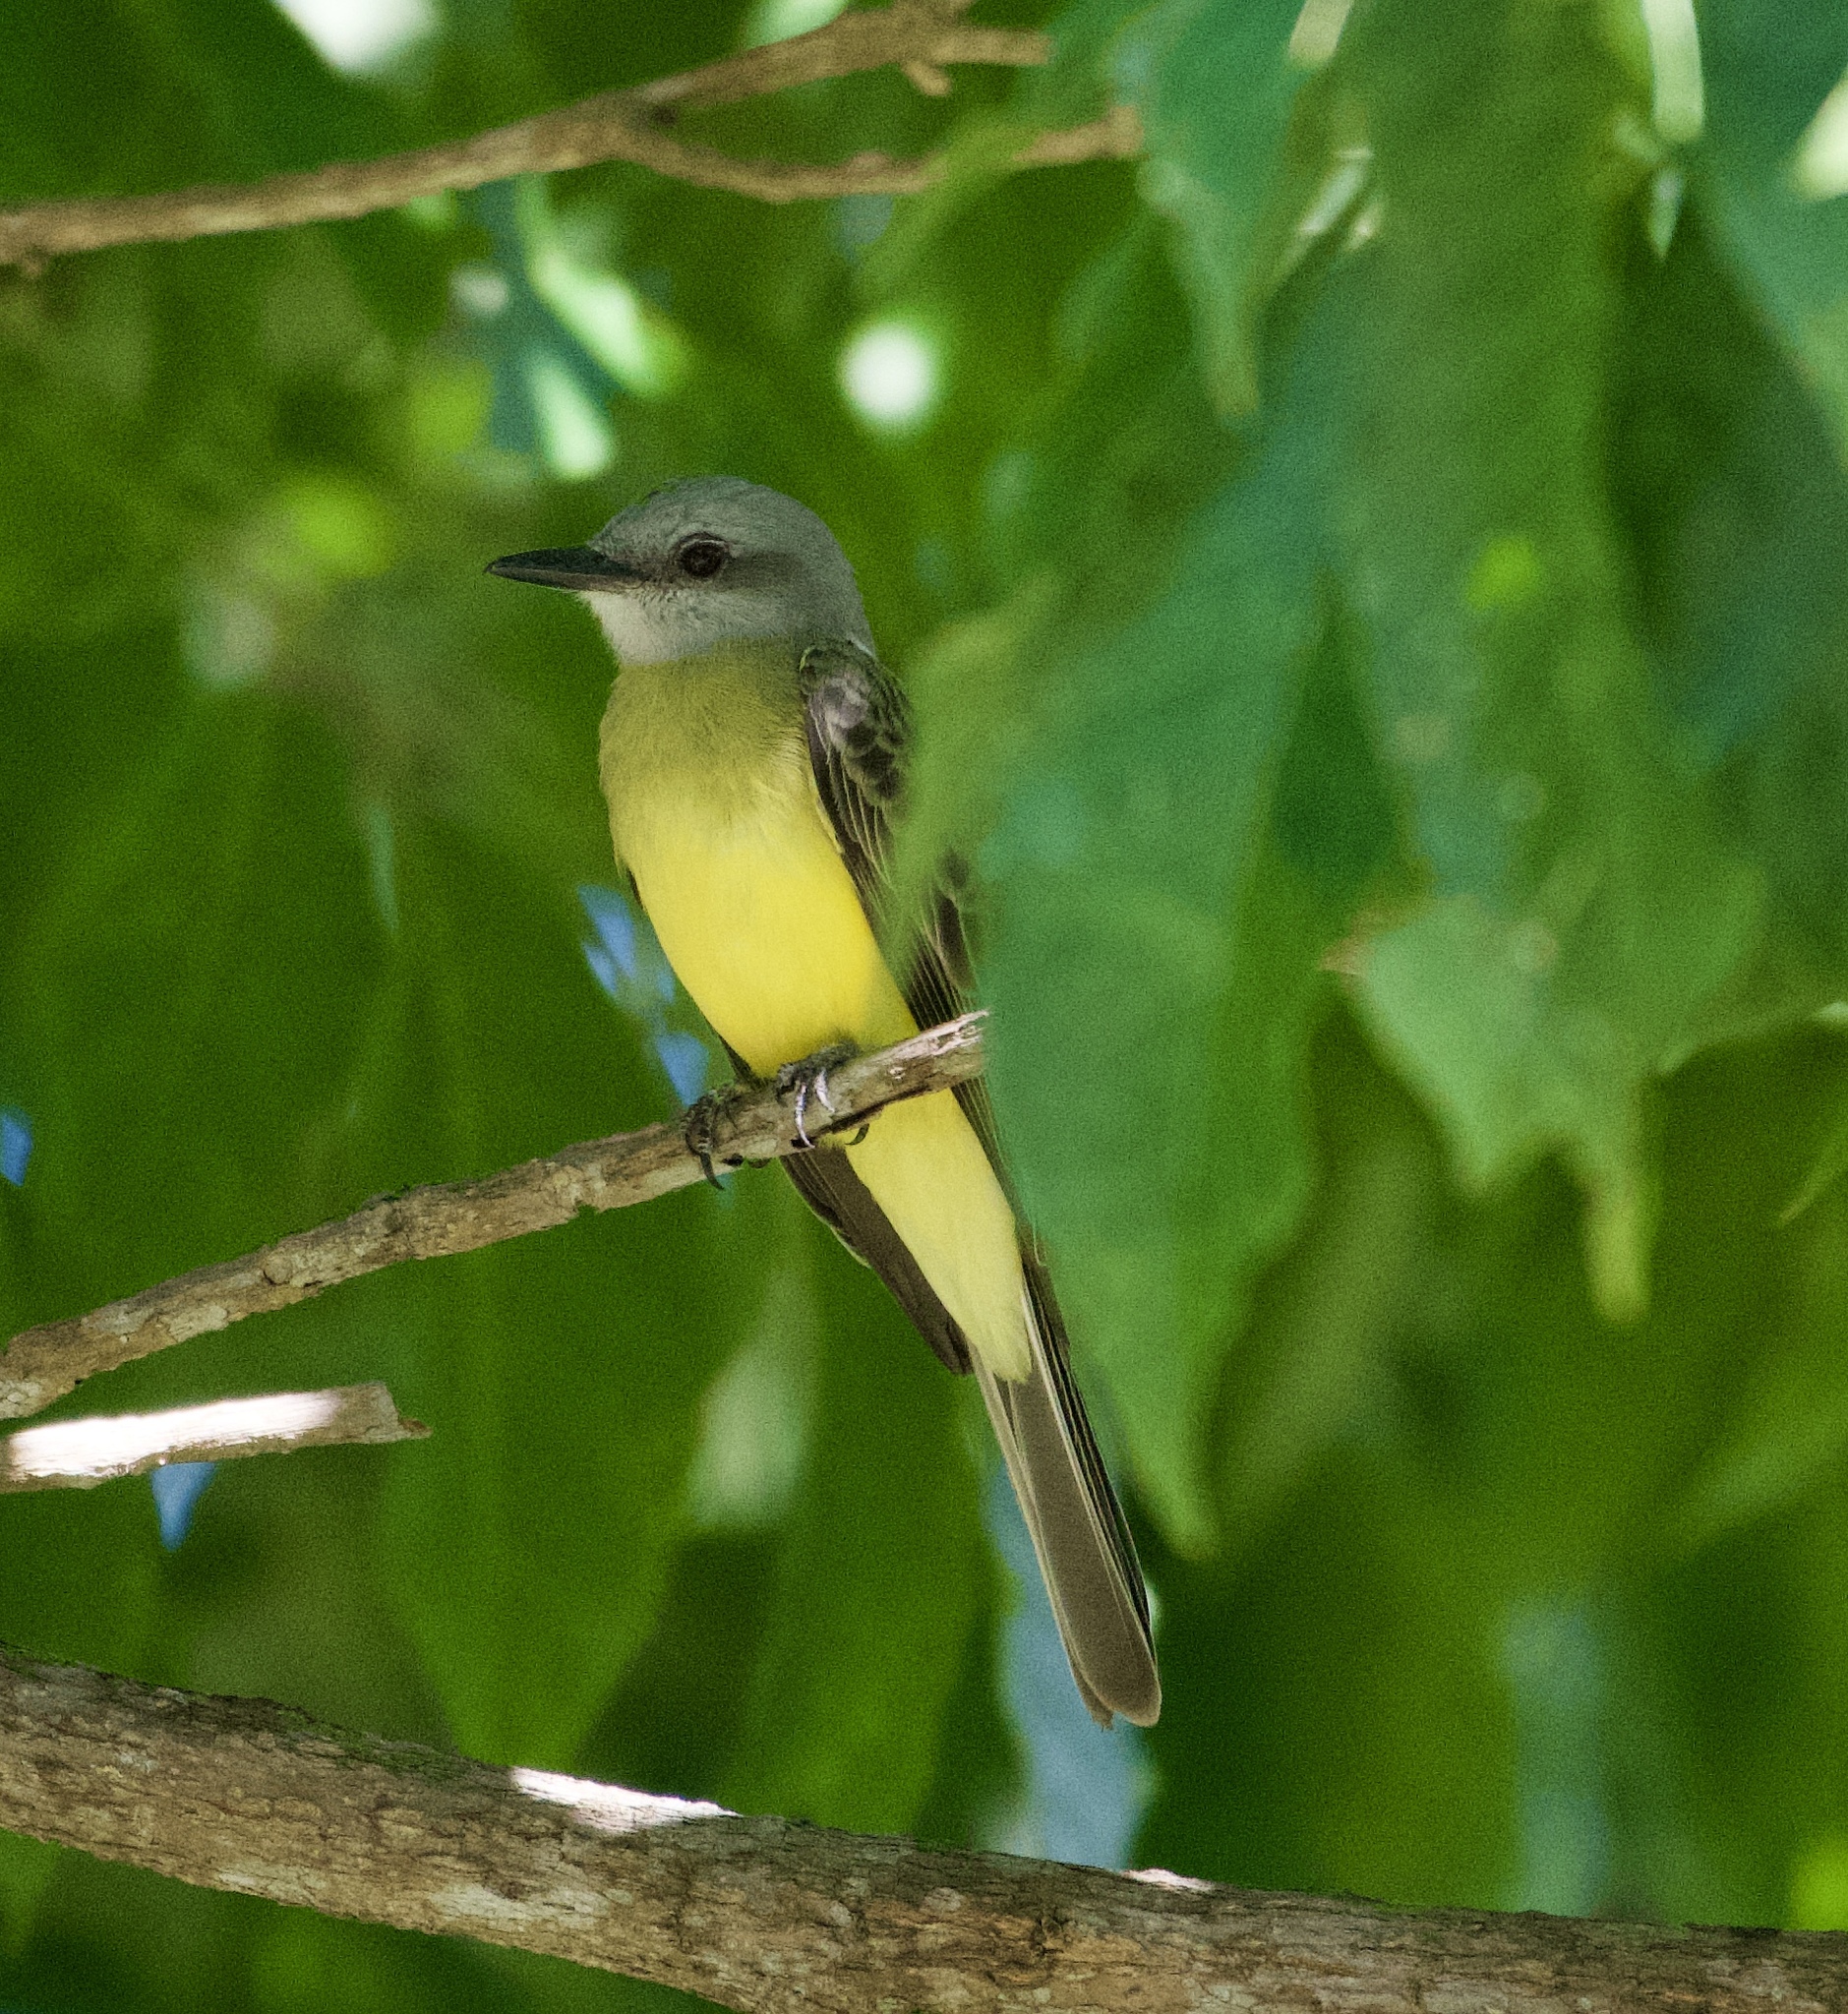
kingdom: Animalia
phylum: Chordata
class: Aves
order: Passeriformes
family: Tyrannidae
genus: Tyrannus
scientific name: Tyrannus melancholicus
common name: Tropical kingbird
